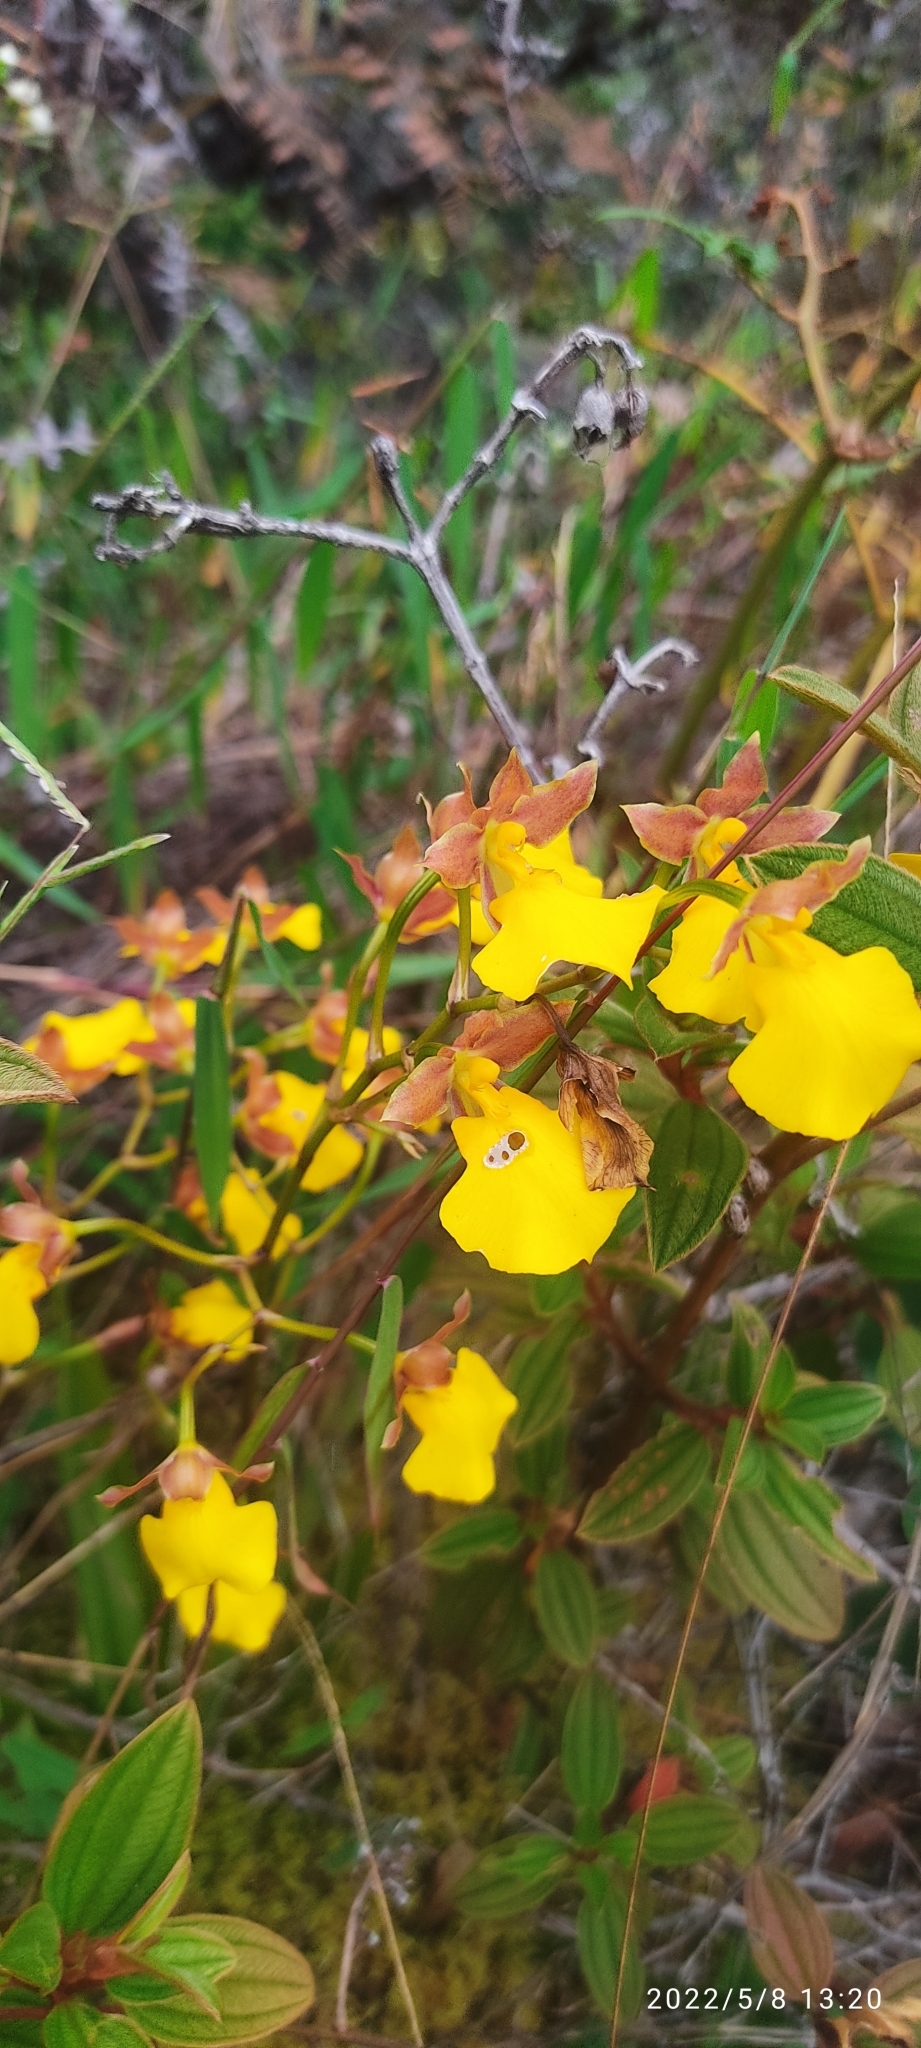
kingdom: Plantae
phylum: Tracheophyta
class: Liliopsida
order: Asparagales
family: Orchidaceae
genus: Cyrtochilum
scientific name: Cyrtochilum aureum
